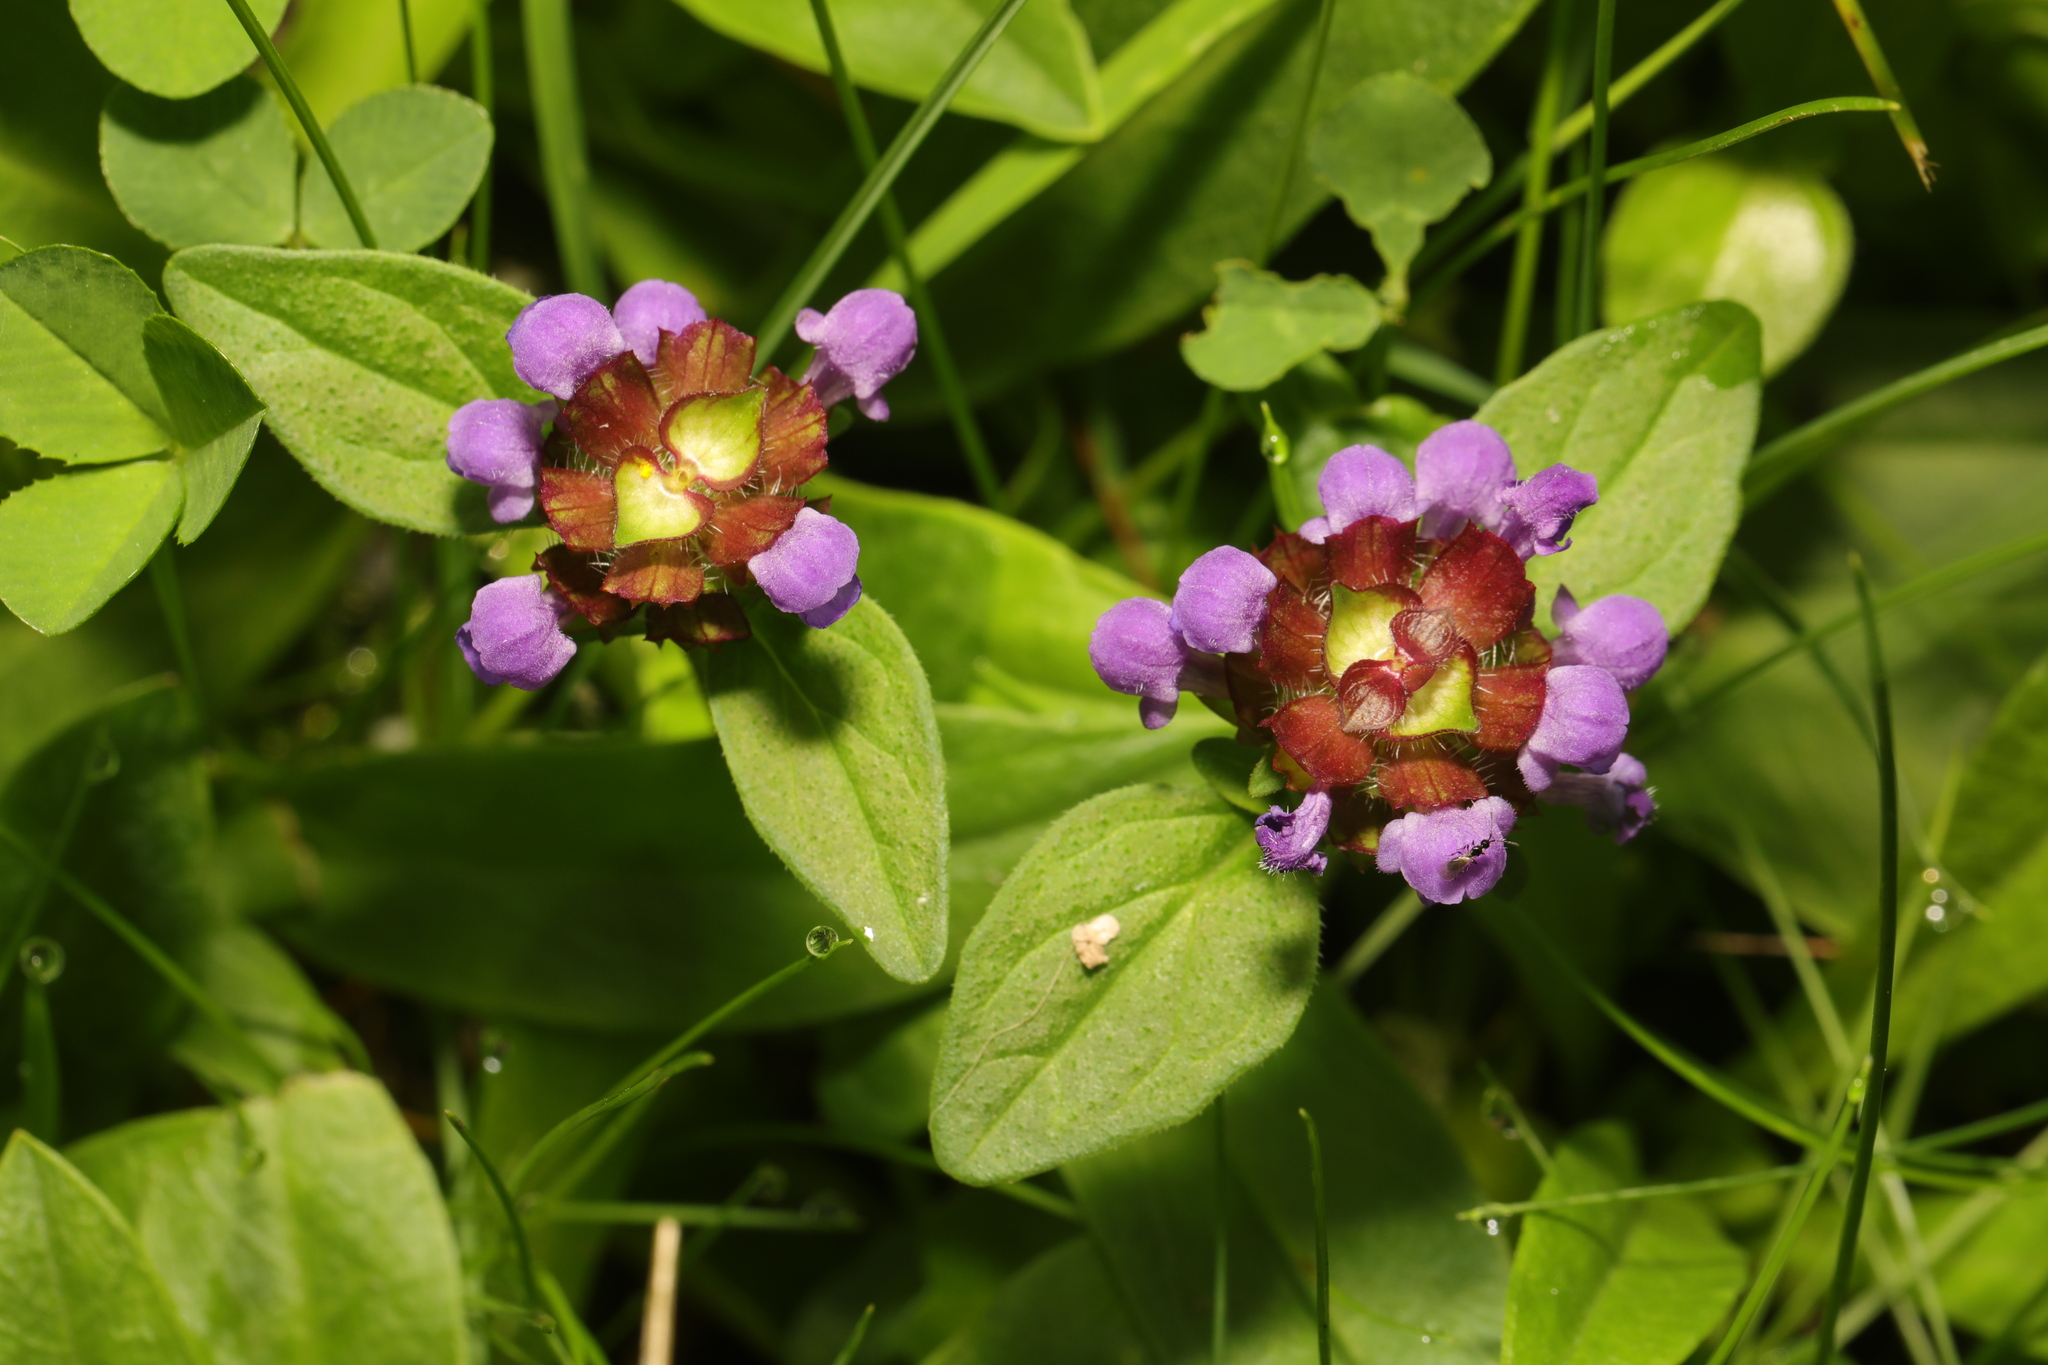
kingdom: Plantae
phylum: Tracheophyta
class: Magnoliopsida
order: Lamiales
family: Lamiaceae
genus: Prunella
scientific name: Prunella vulgaris
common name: Heal-all
